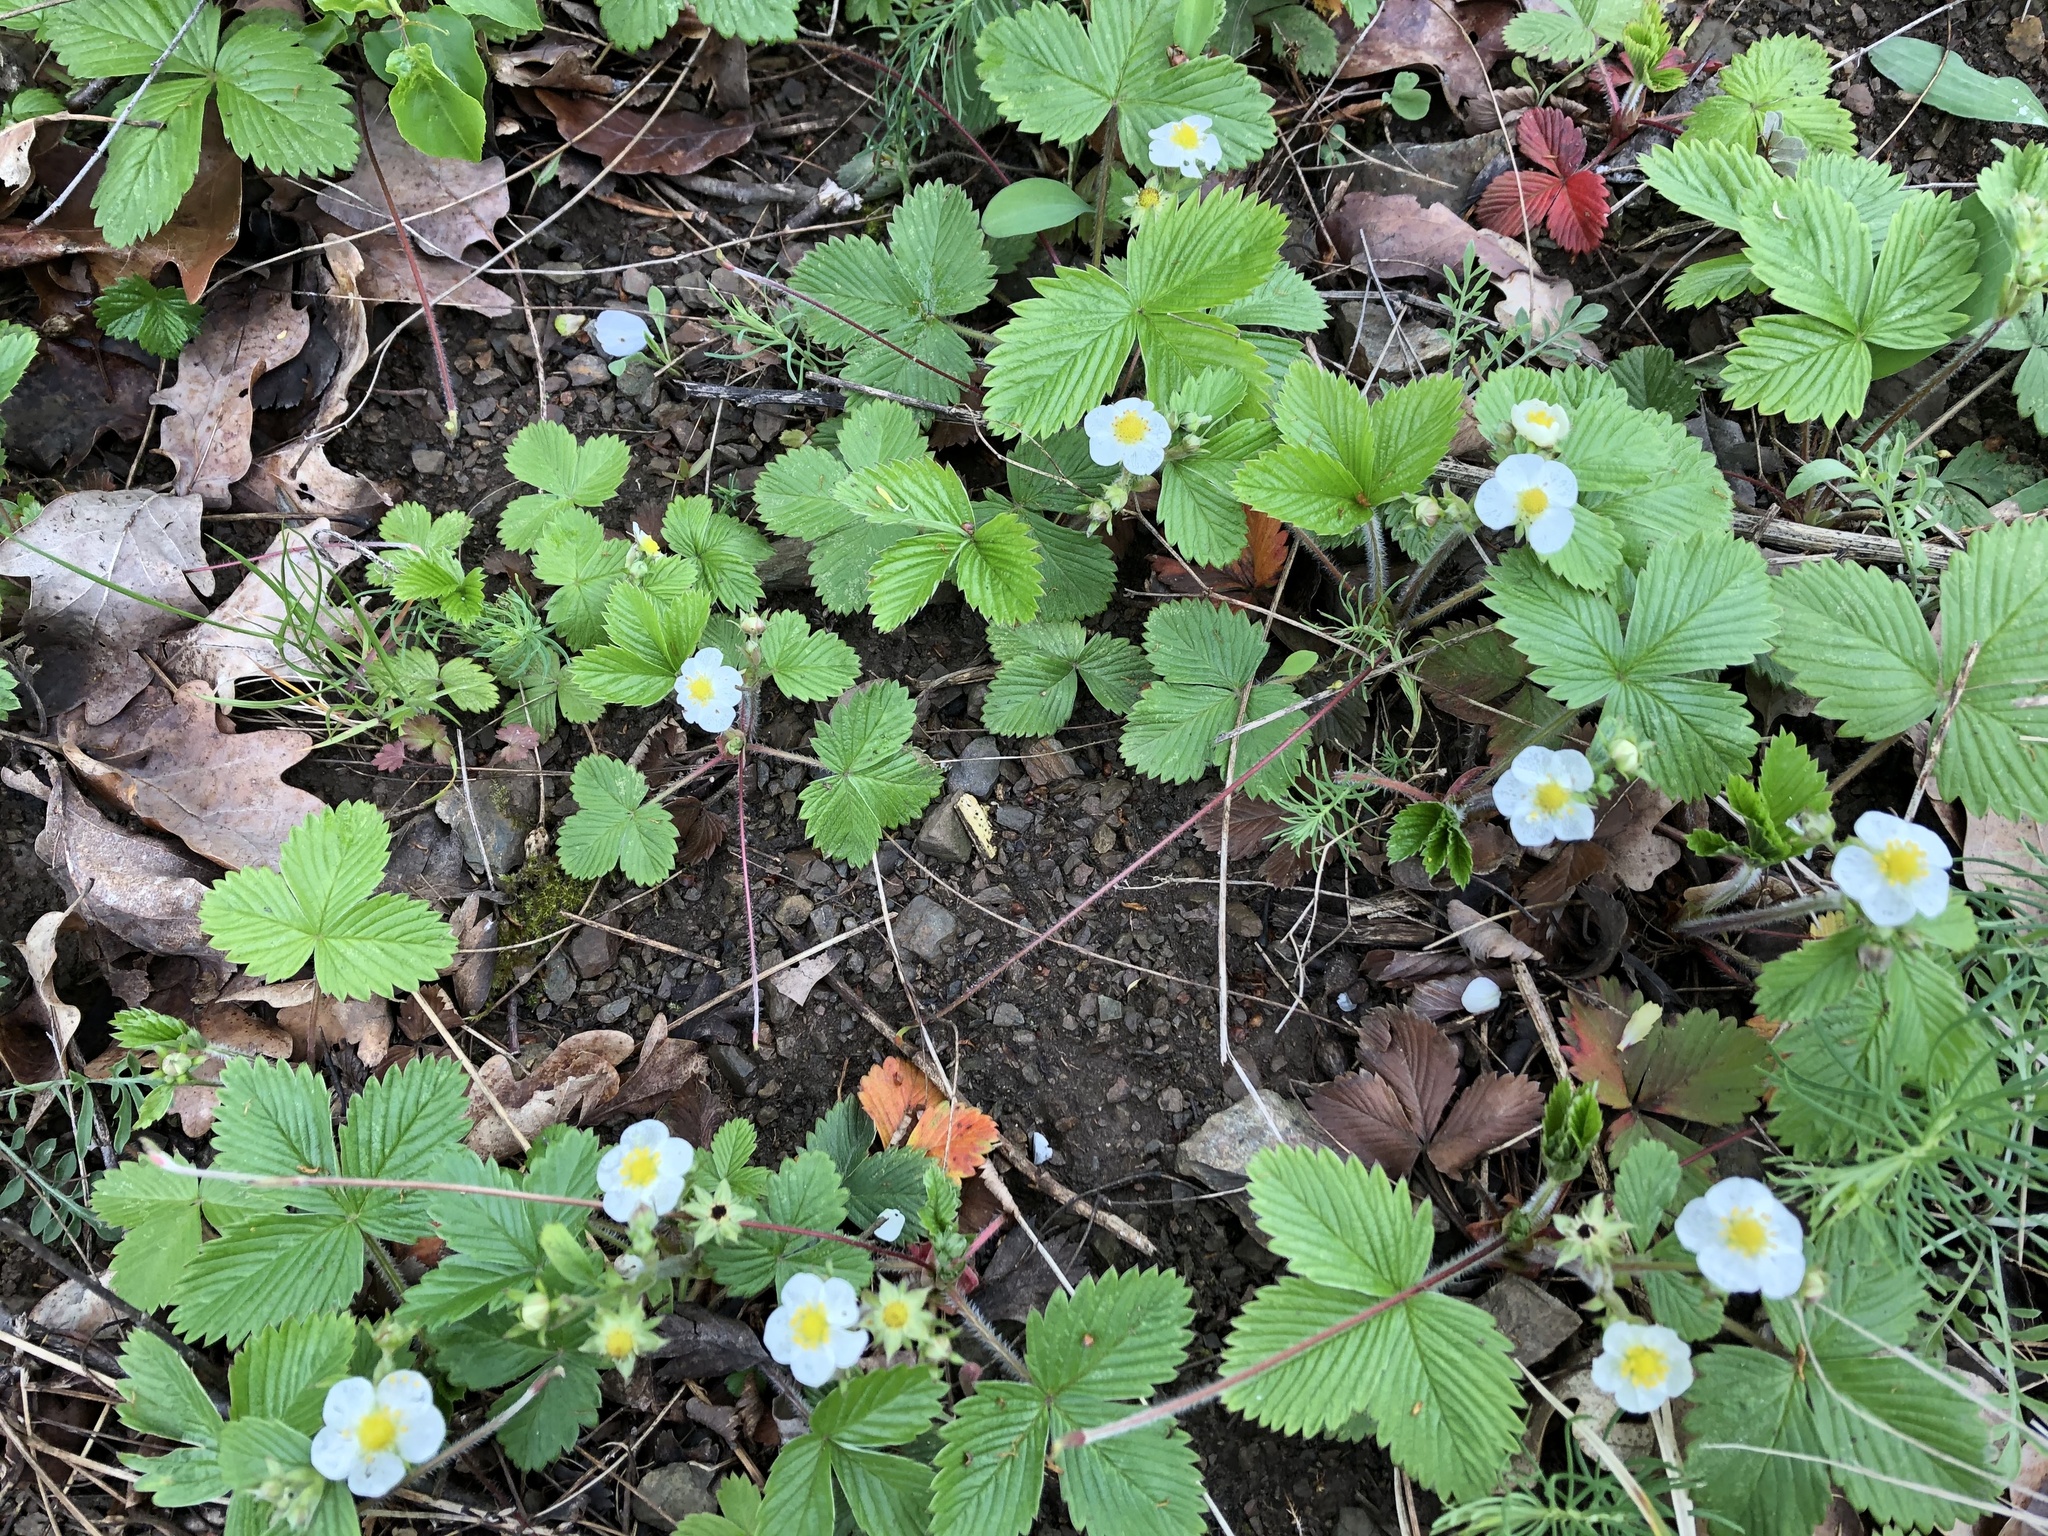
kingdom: Plantae
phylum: Tracheophyta
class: Magnoliopsida
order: Rosales
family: Rosaceae
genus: Fragaria
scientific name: Fragaria vesca
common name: Wild strawberry
